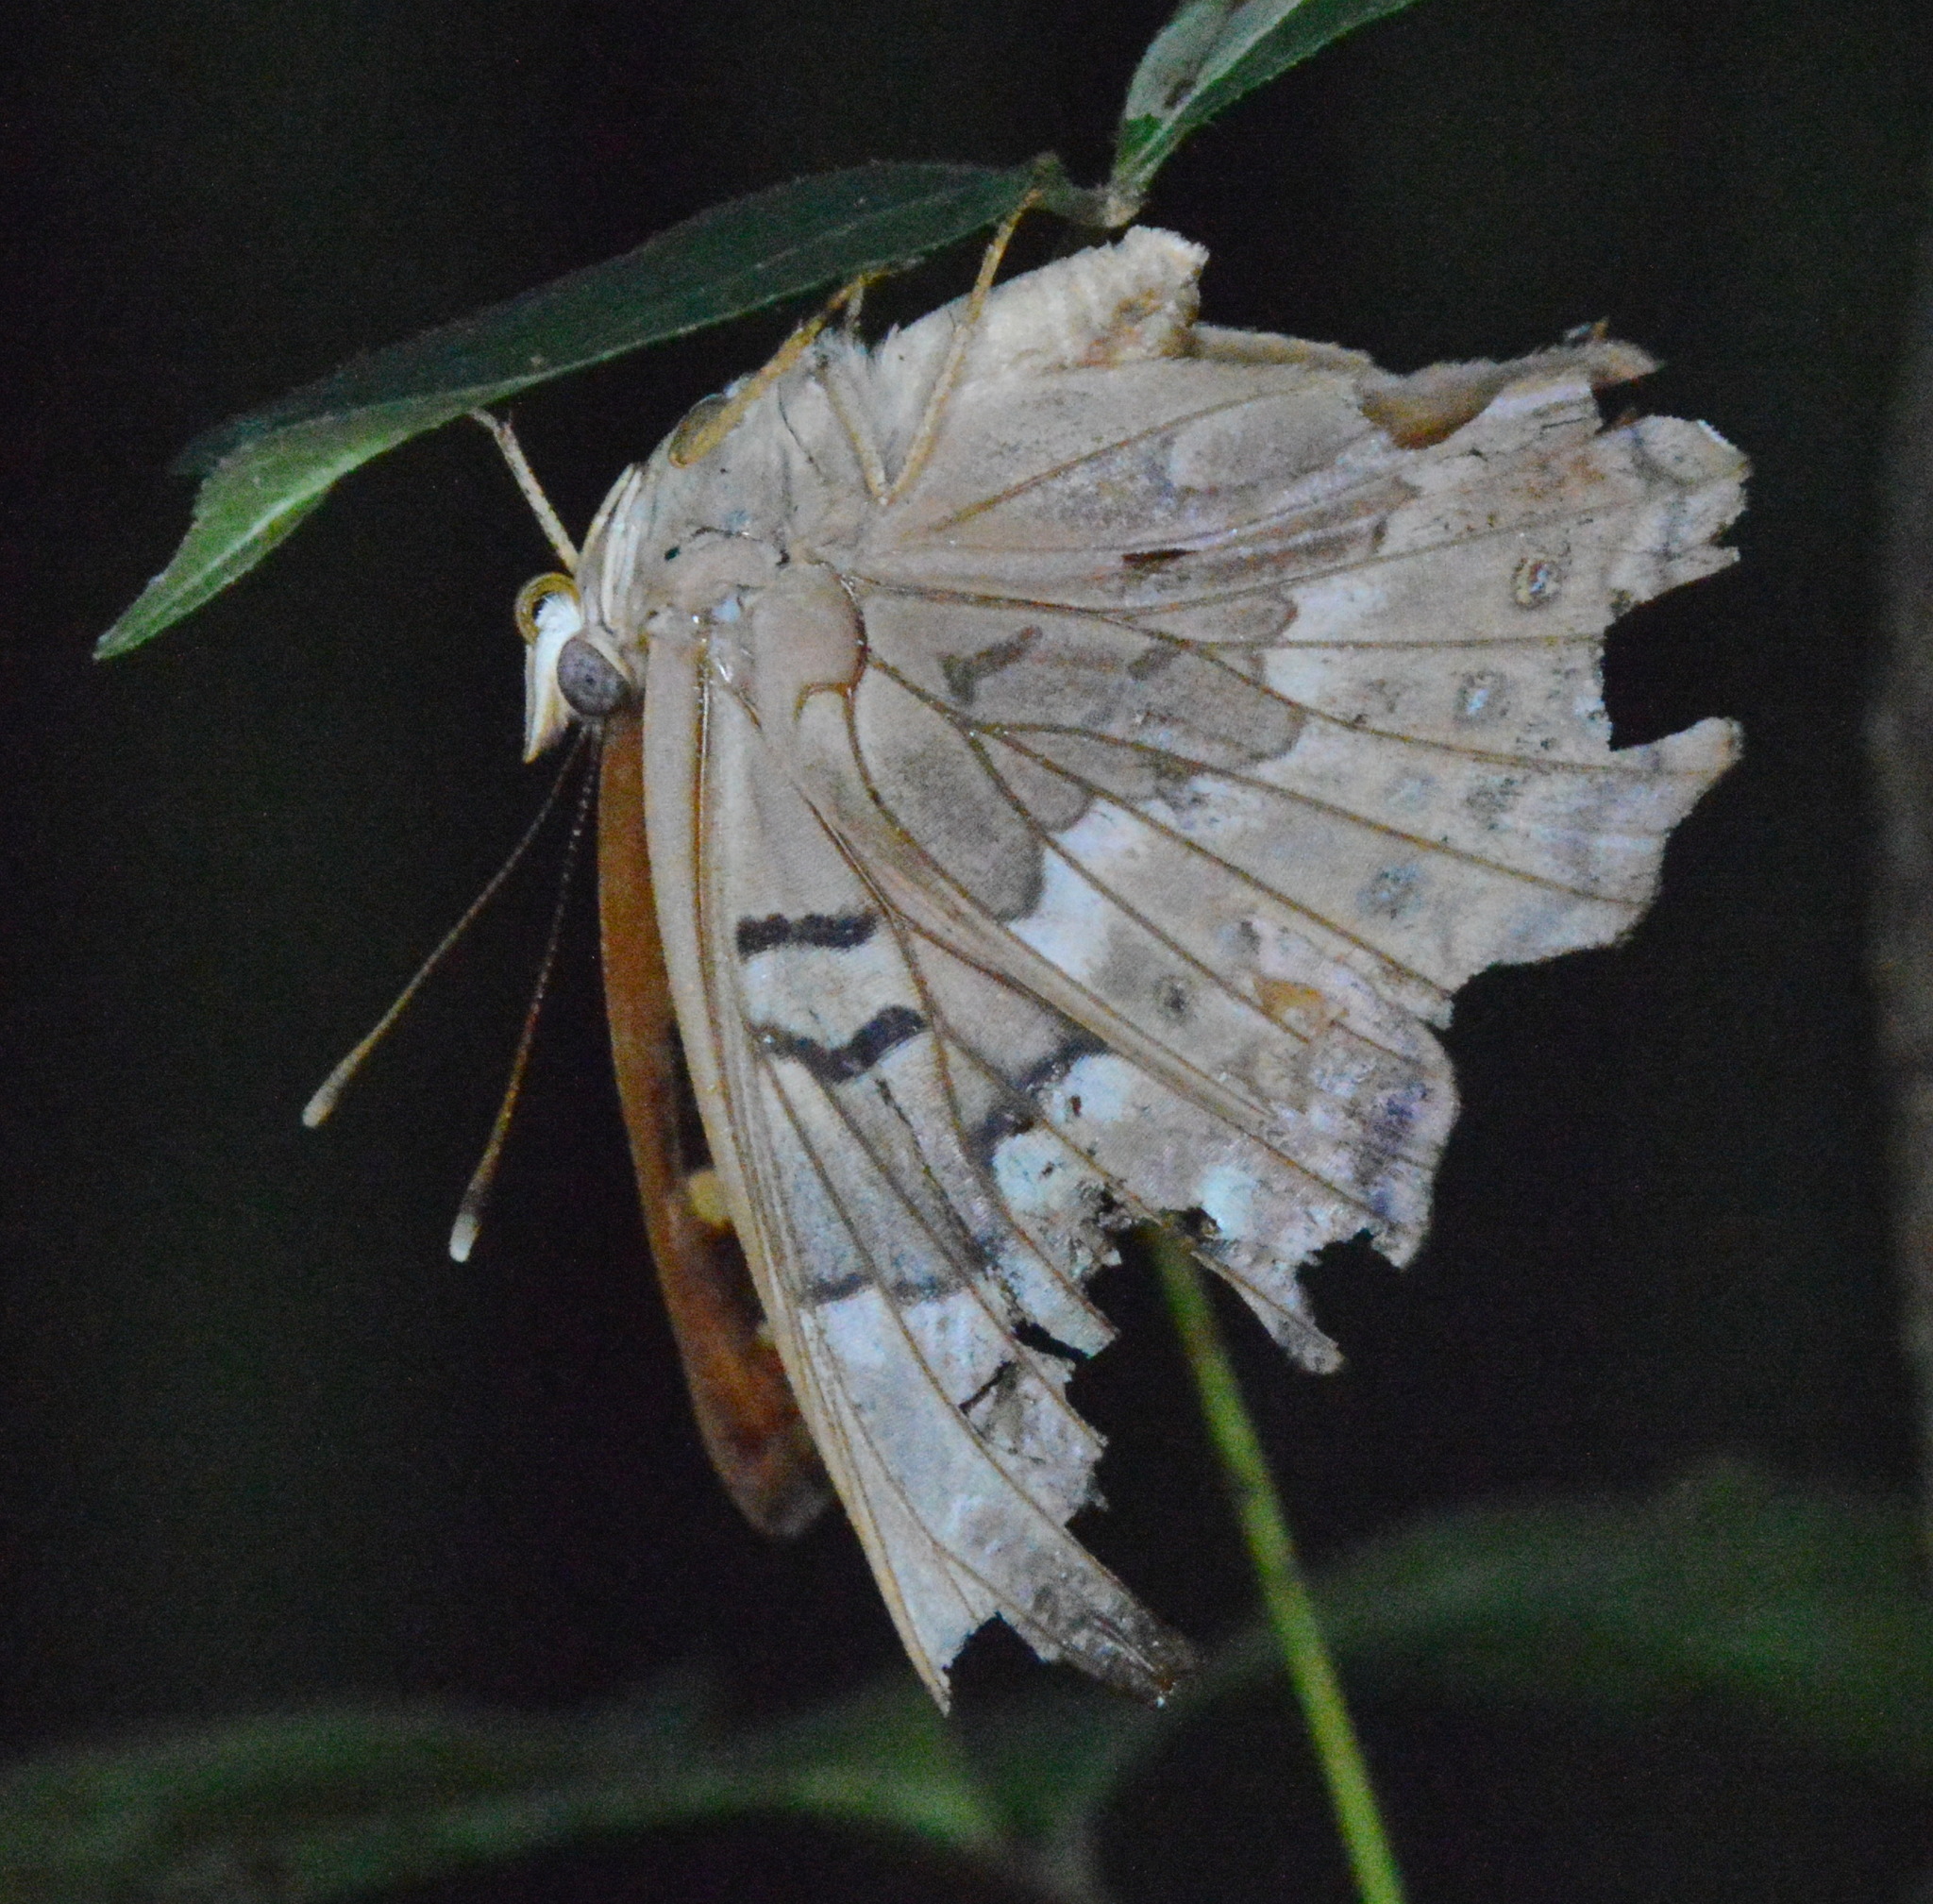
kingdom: Animalia
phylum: Arthropoda
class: Insecta
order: Lepidoptera
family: Nymphalidae
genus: Asterocampa
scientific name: Asterocampa clyton
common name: Tawny emperor
